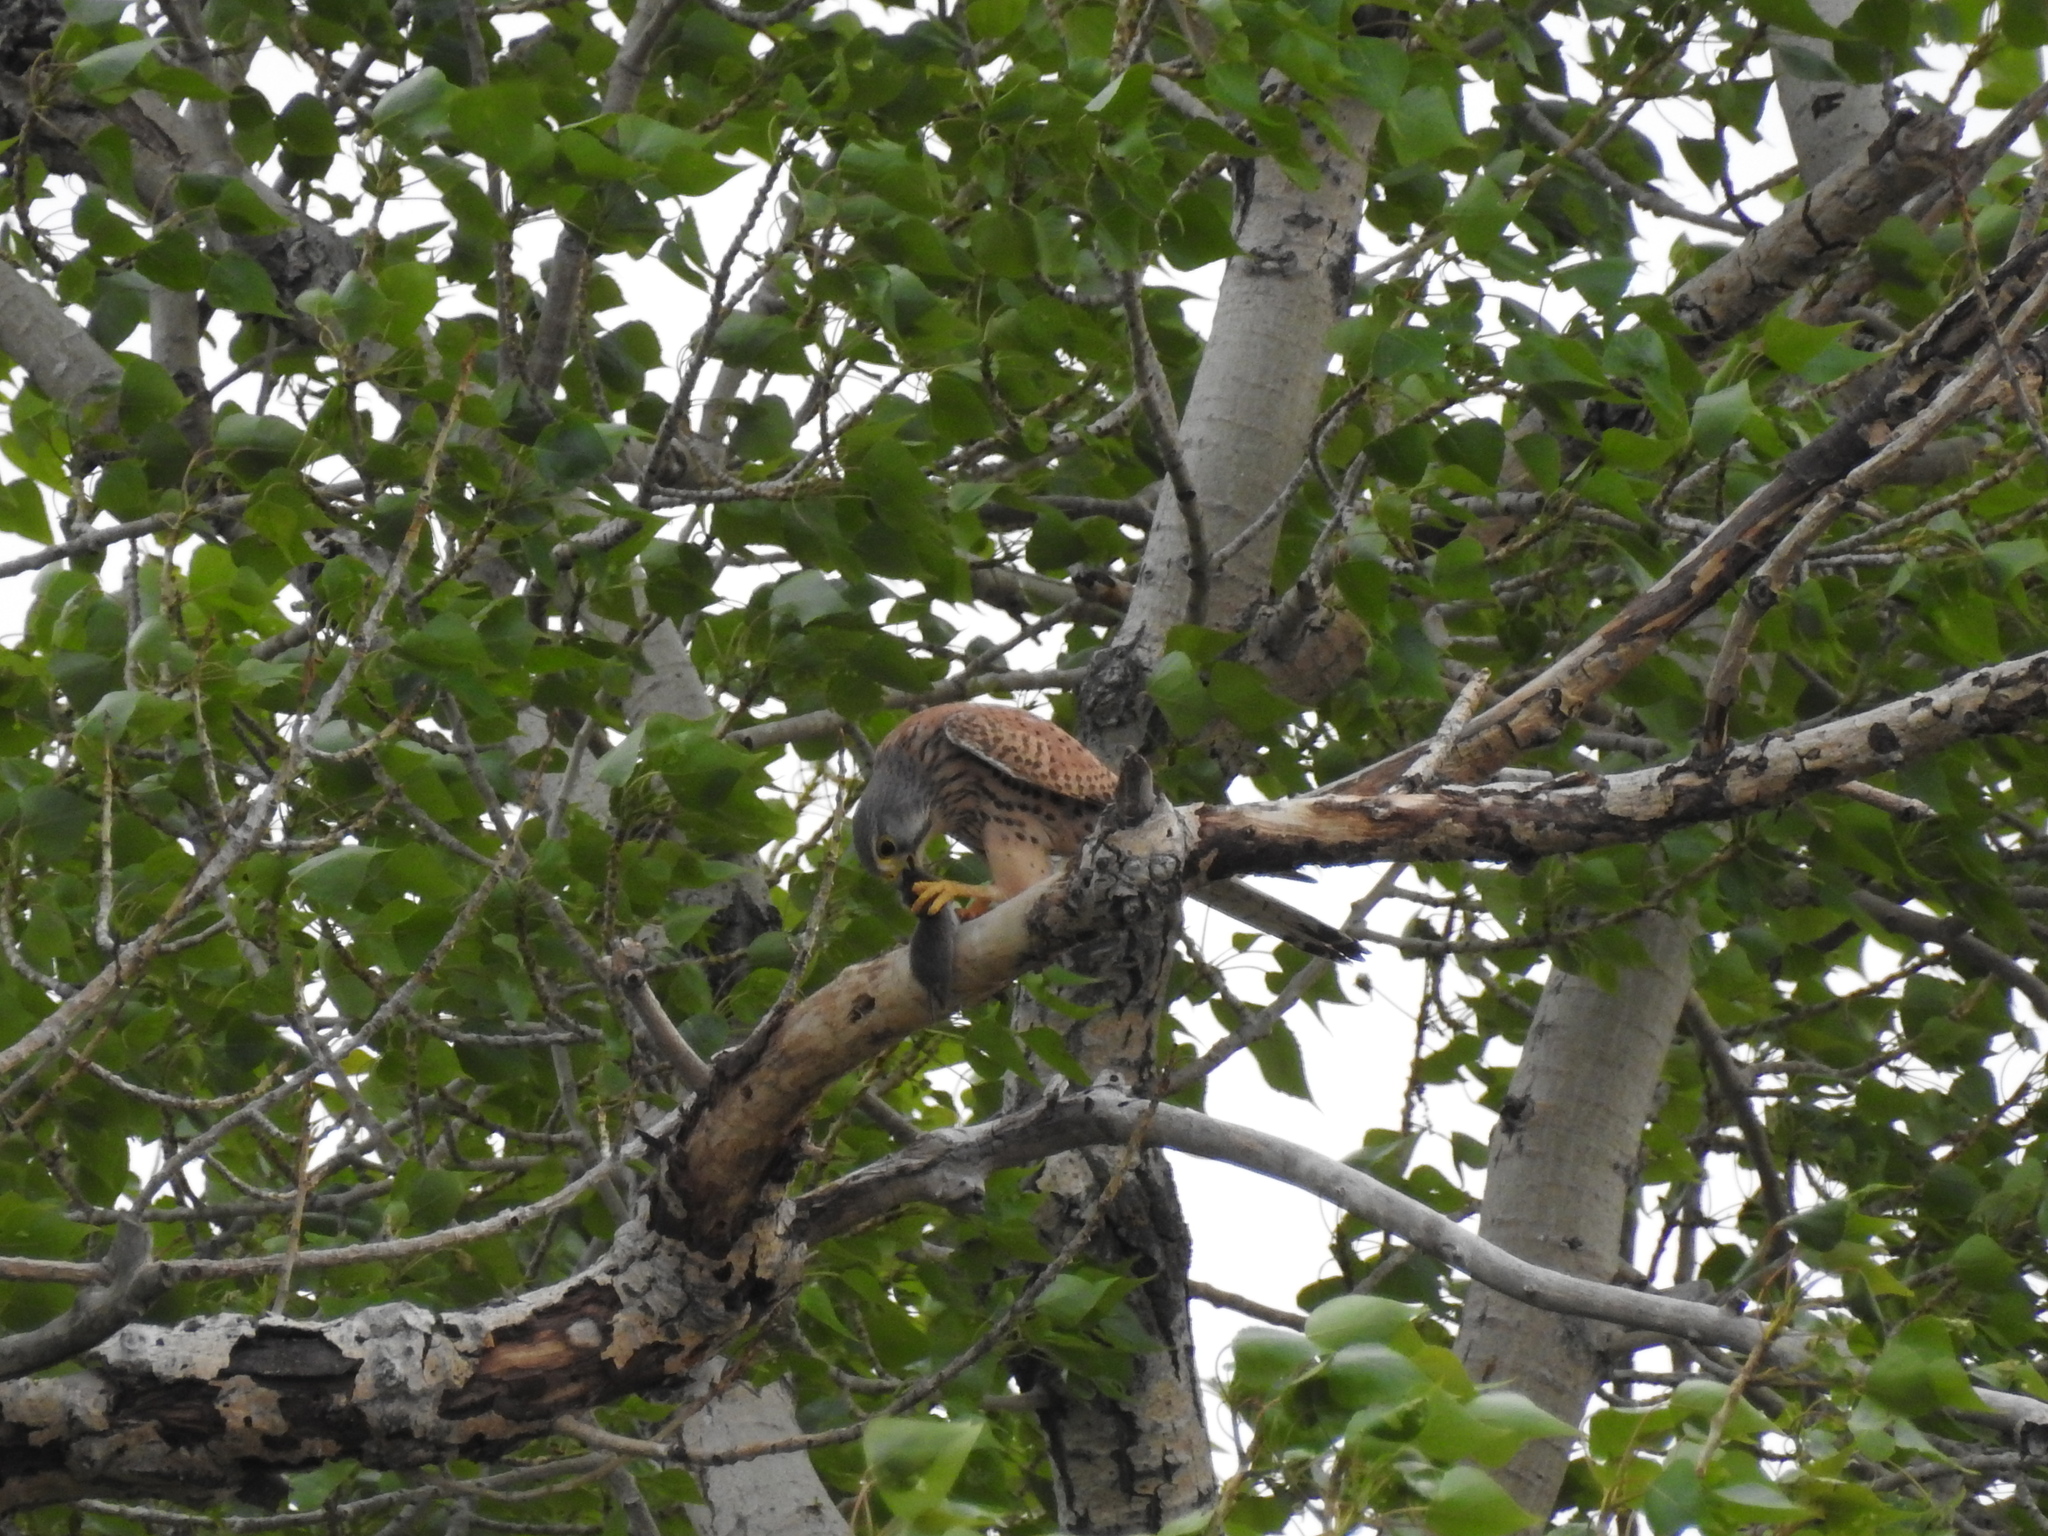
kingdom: Animalia
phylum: Chordata
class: Aves
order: Falconiformes
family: Falconidae
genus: Falco
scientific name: Falco tinnunculus
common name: Common kestrel
